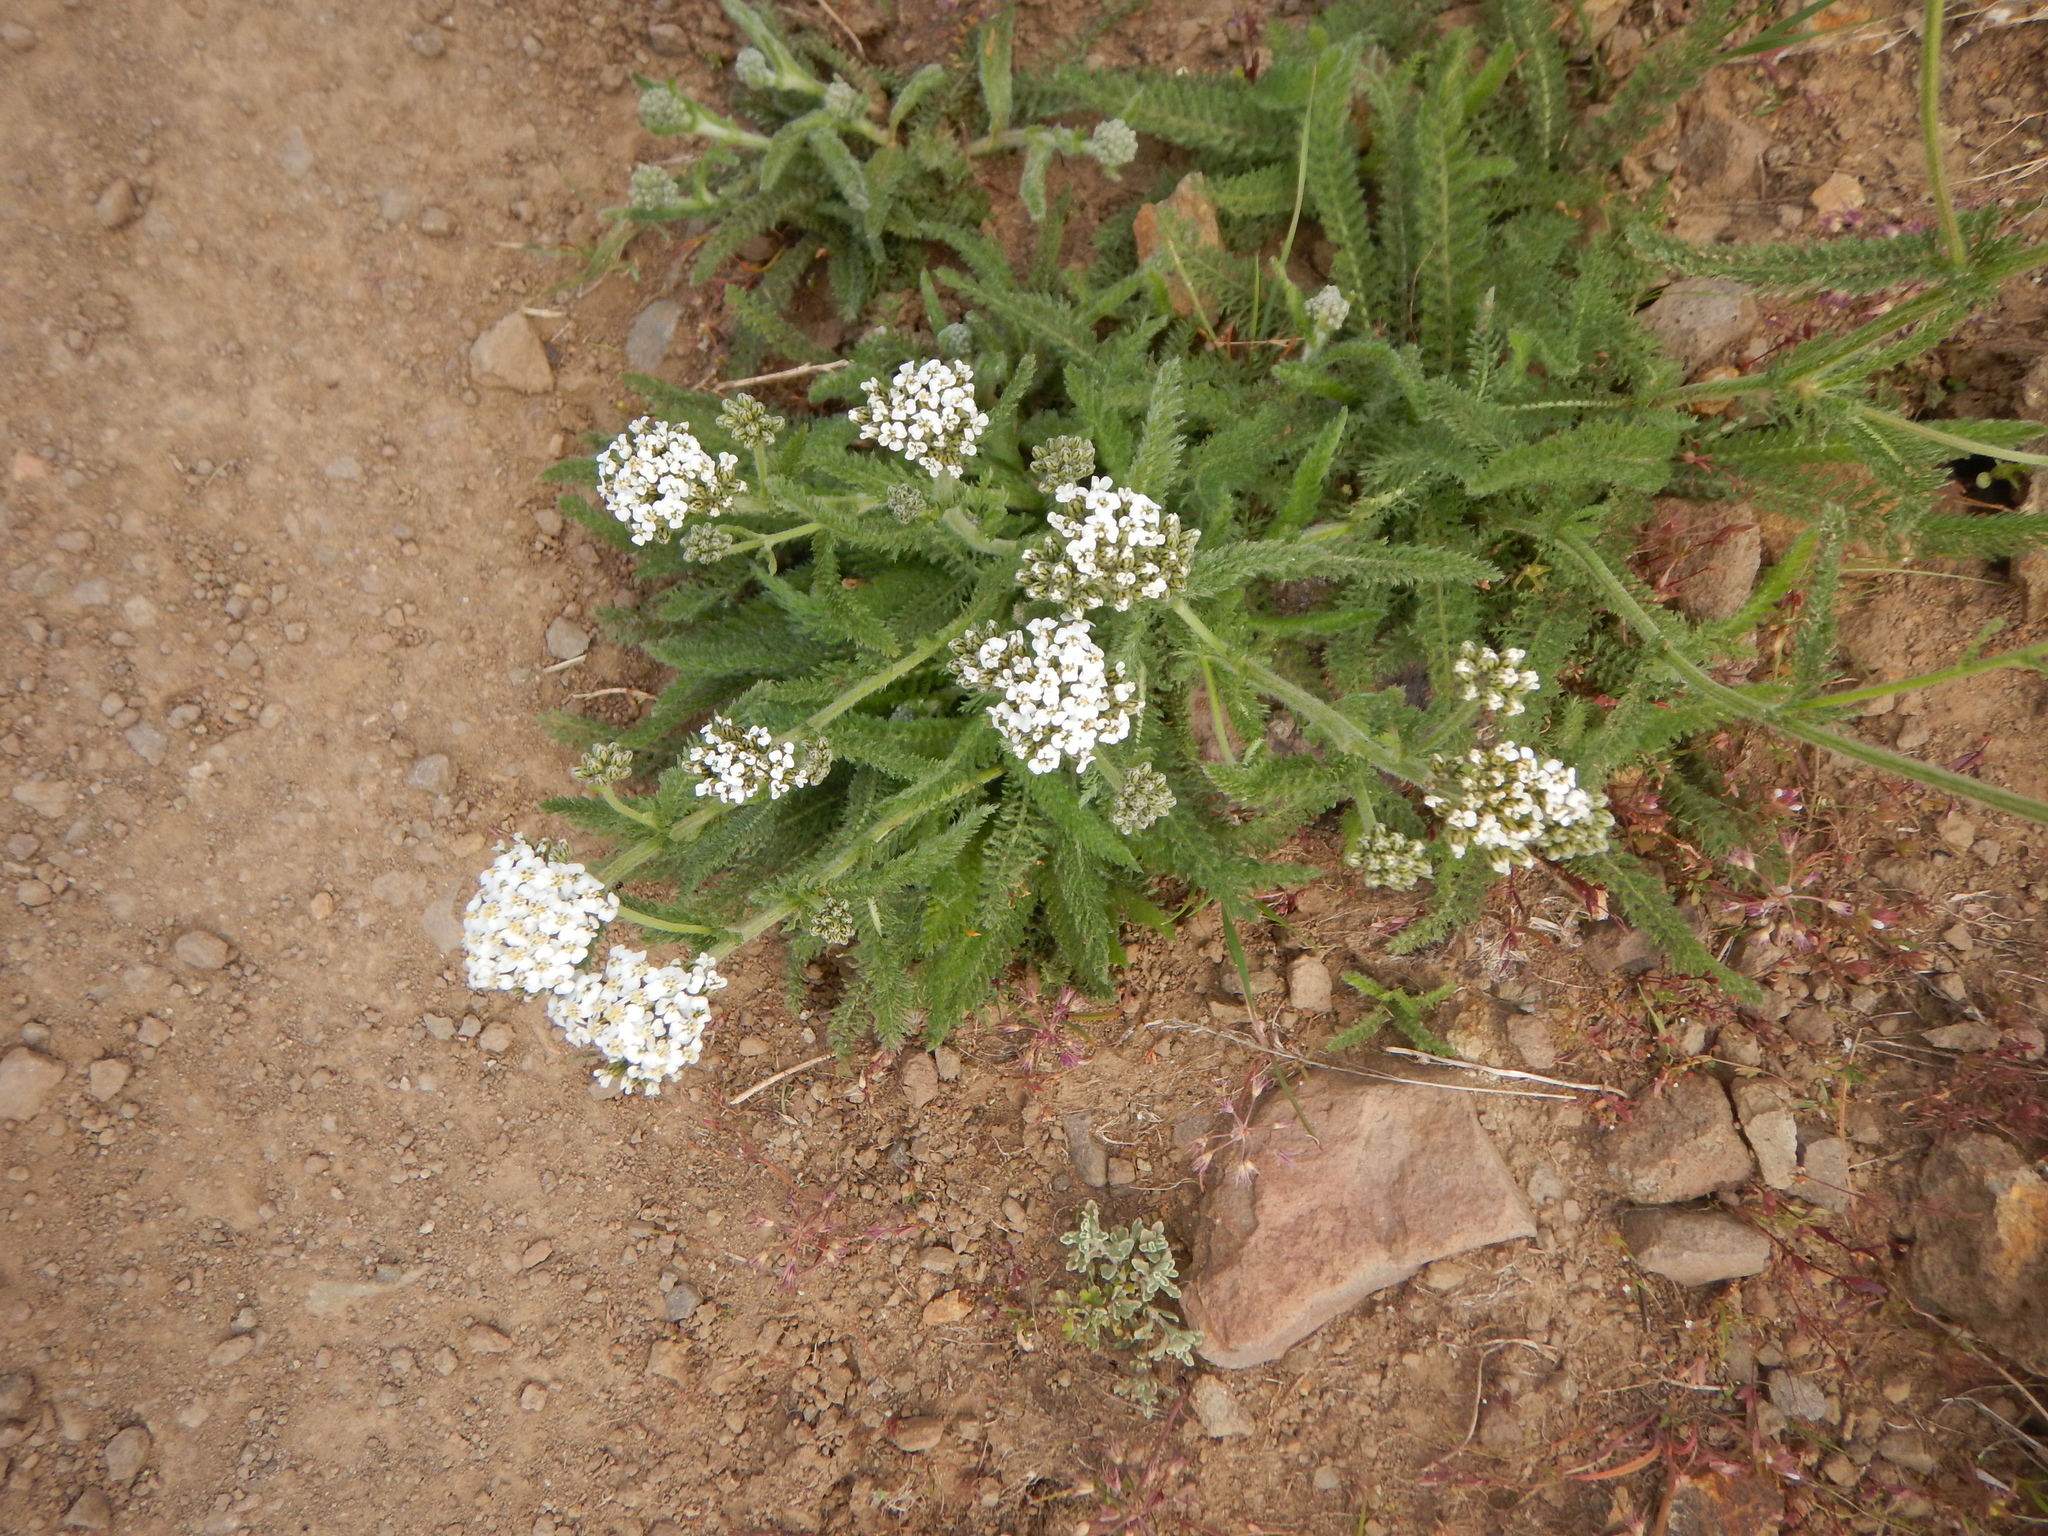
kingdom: Plantae
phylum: Tracheophyta
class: Magnoliopsida
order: Asterales
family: Asteraceae
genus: Achillea
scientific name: Achillea millefolium
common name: Yarrow
